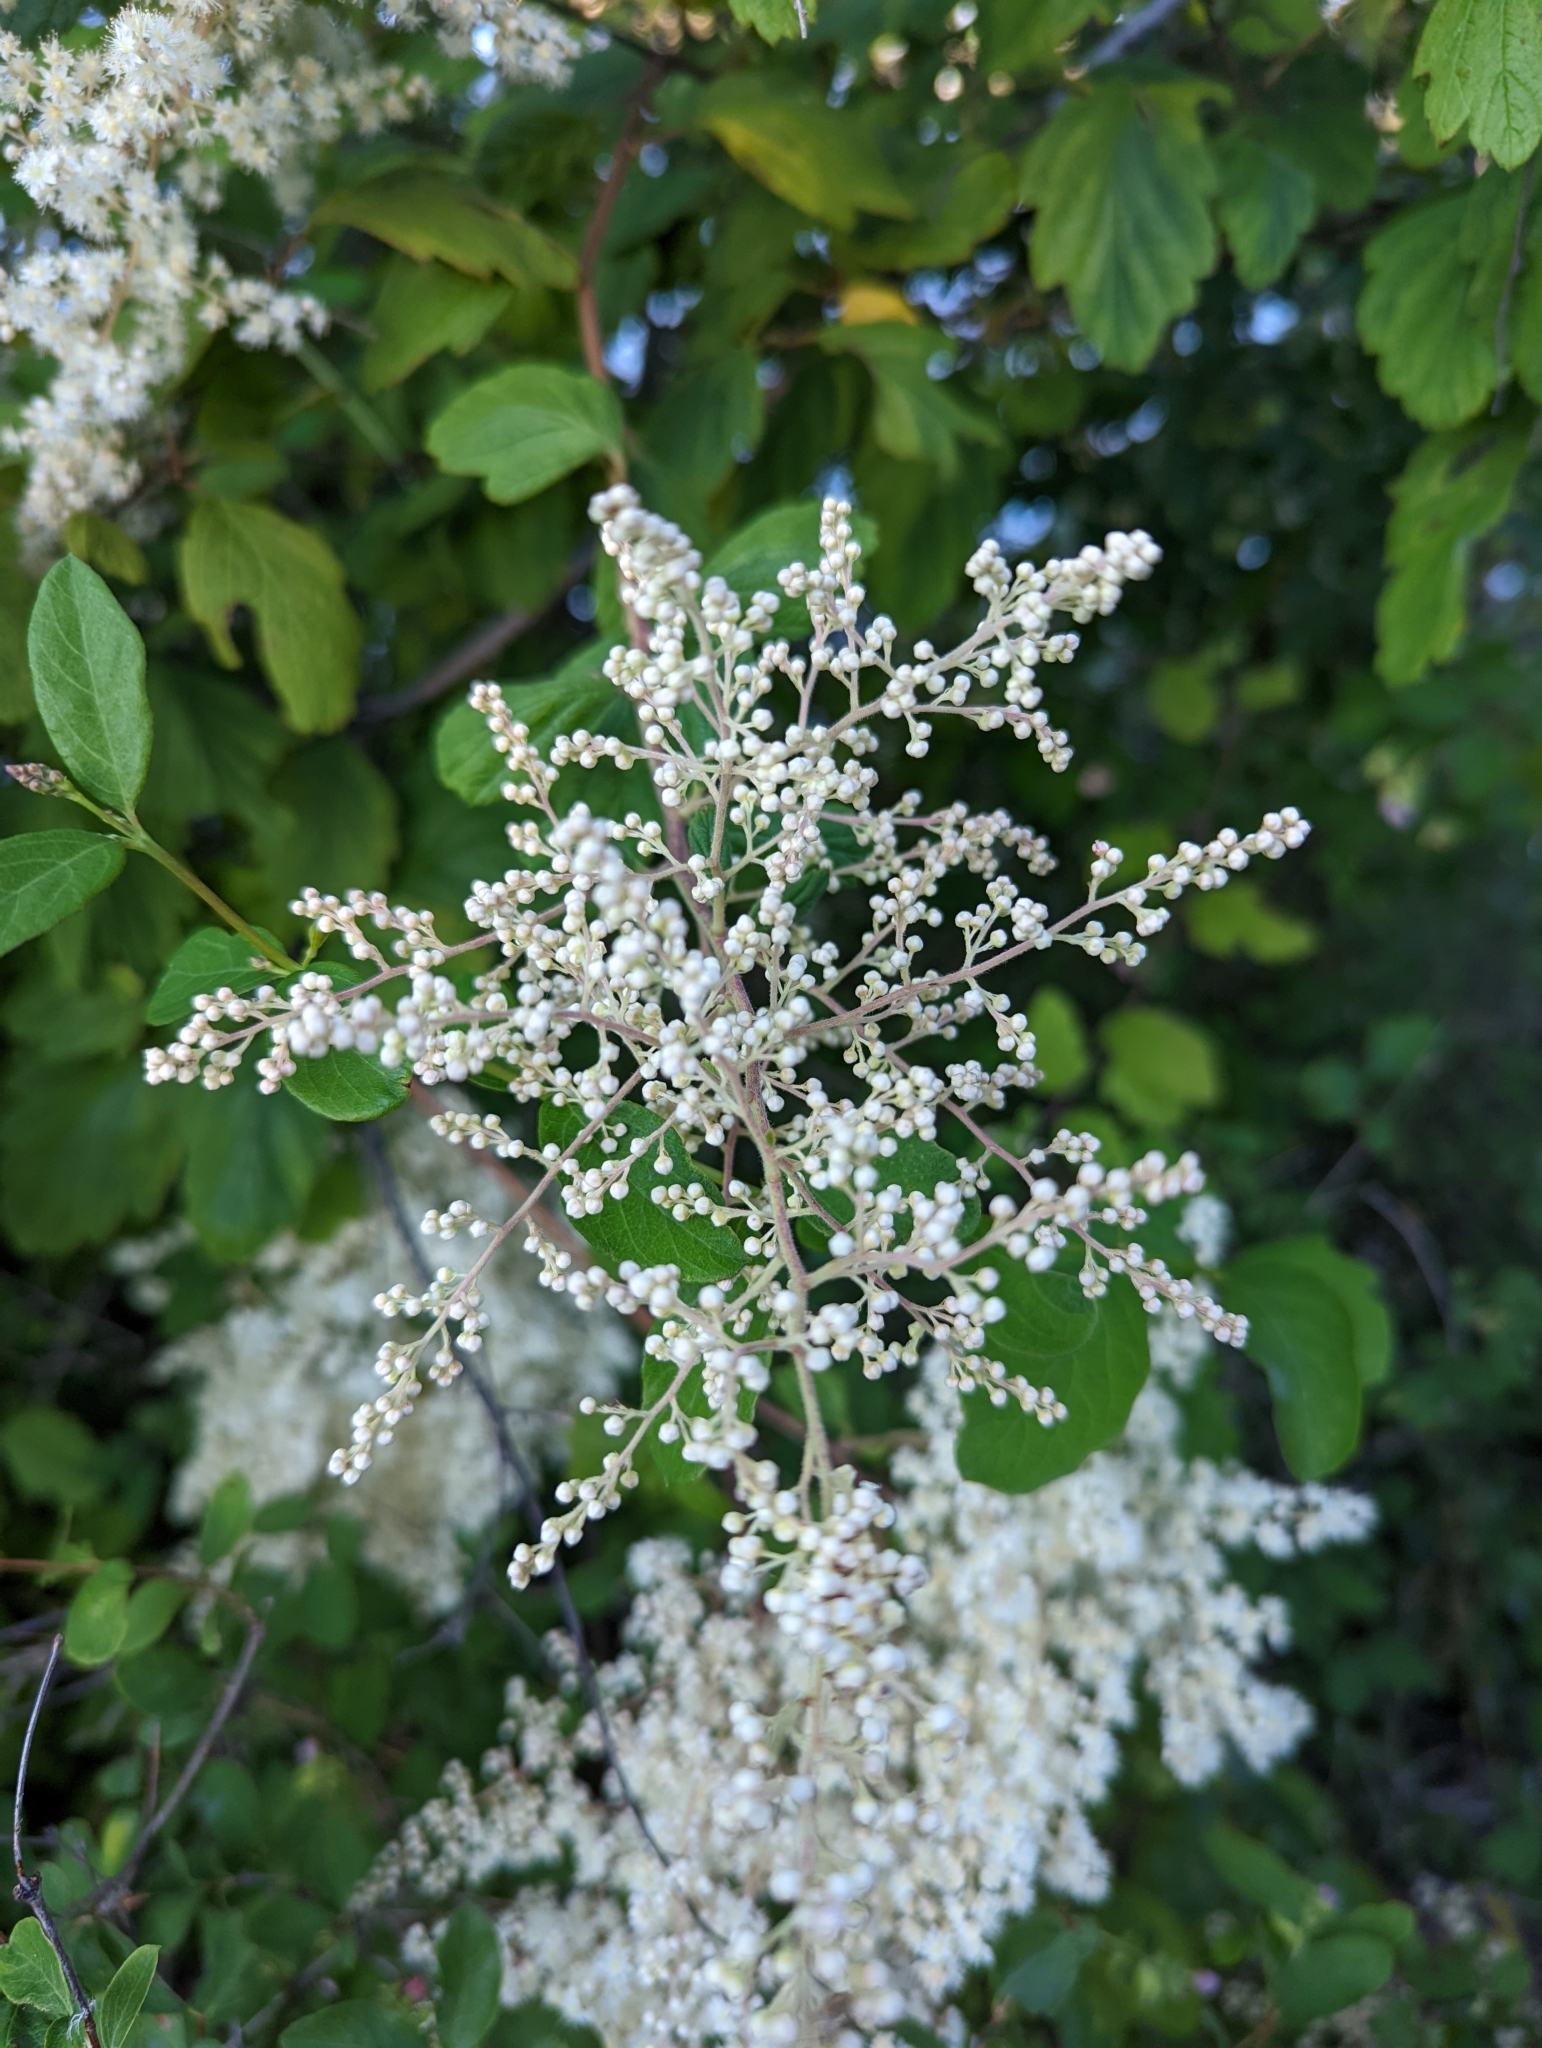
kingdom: Plantae
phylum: Tracheophyta
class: Magnoliopsida
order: Rosales
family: Rosaceae
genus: Holodiscus
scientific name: Holodiscus discolor
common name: Oceanspray
